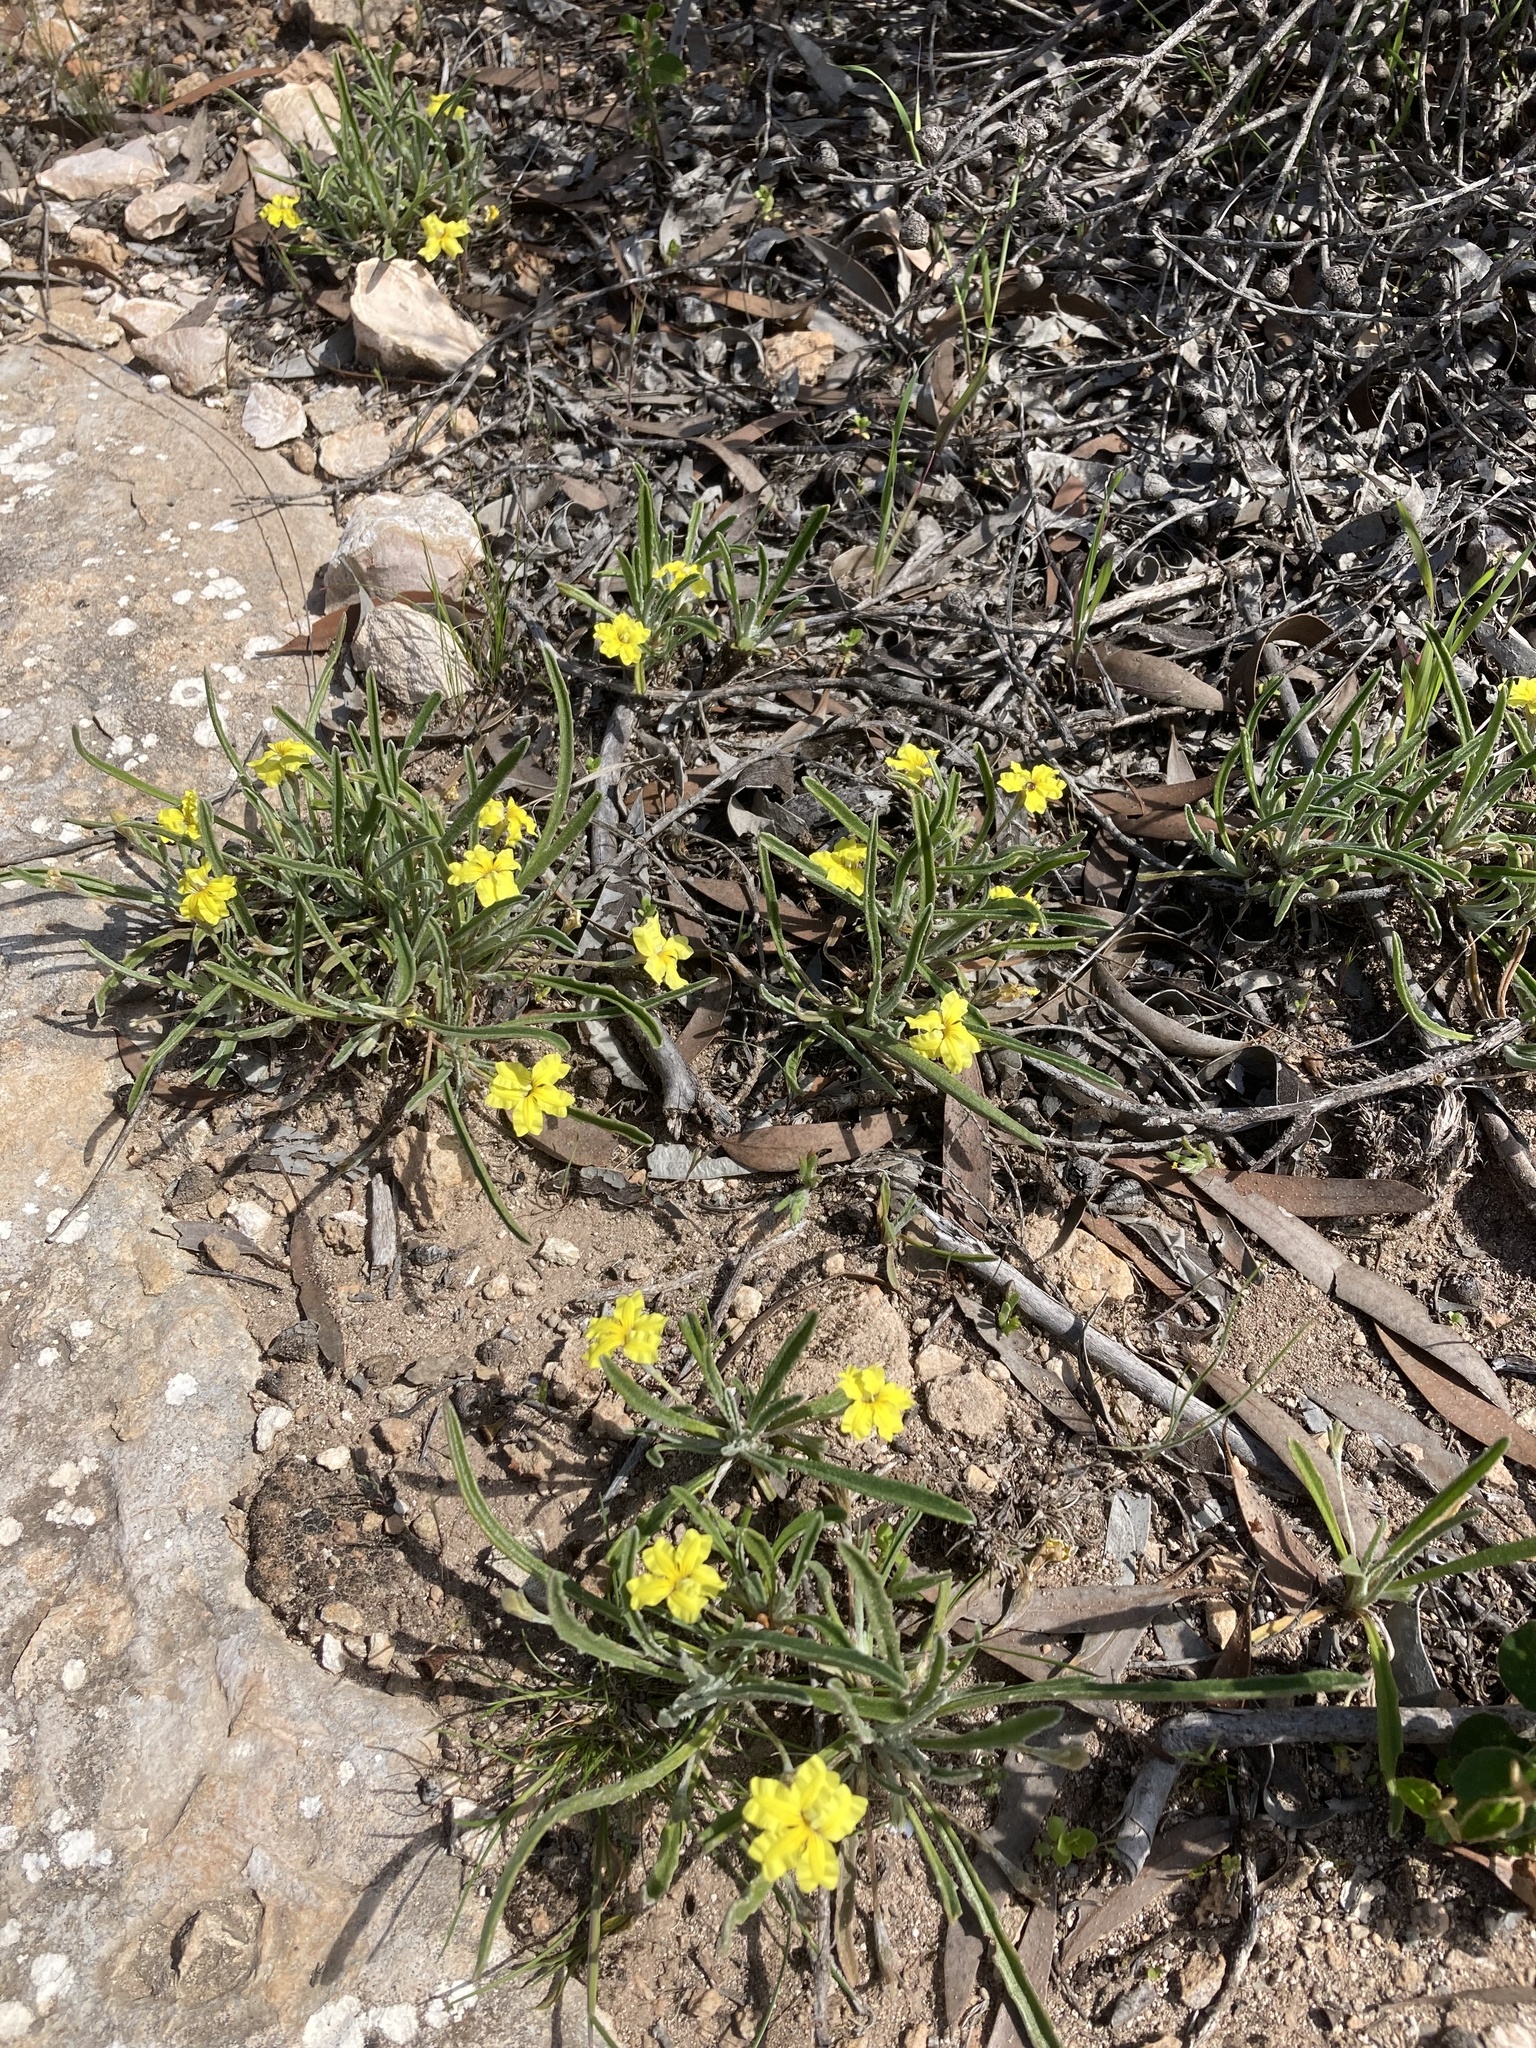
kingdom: Plantae
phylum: Tracheophyta
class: Magnoliopsida
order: Asterales
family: Goodeniaceae
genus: Goodenia
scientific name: Goodenia willisiana
